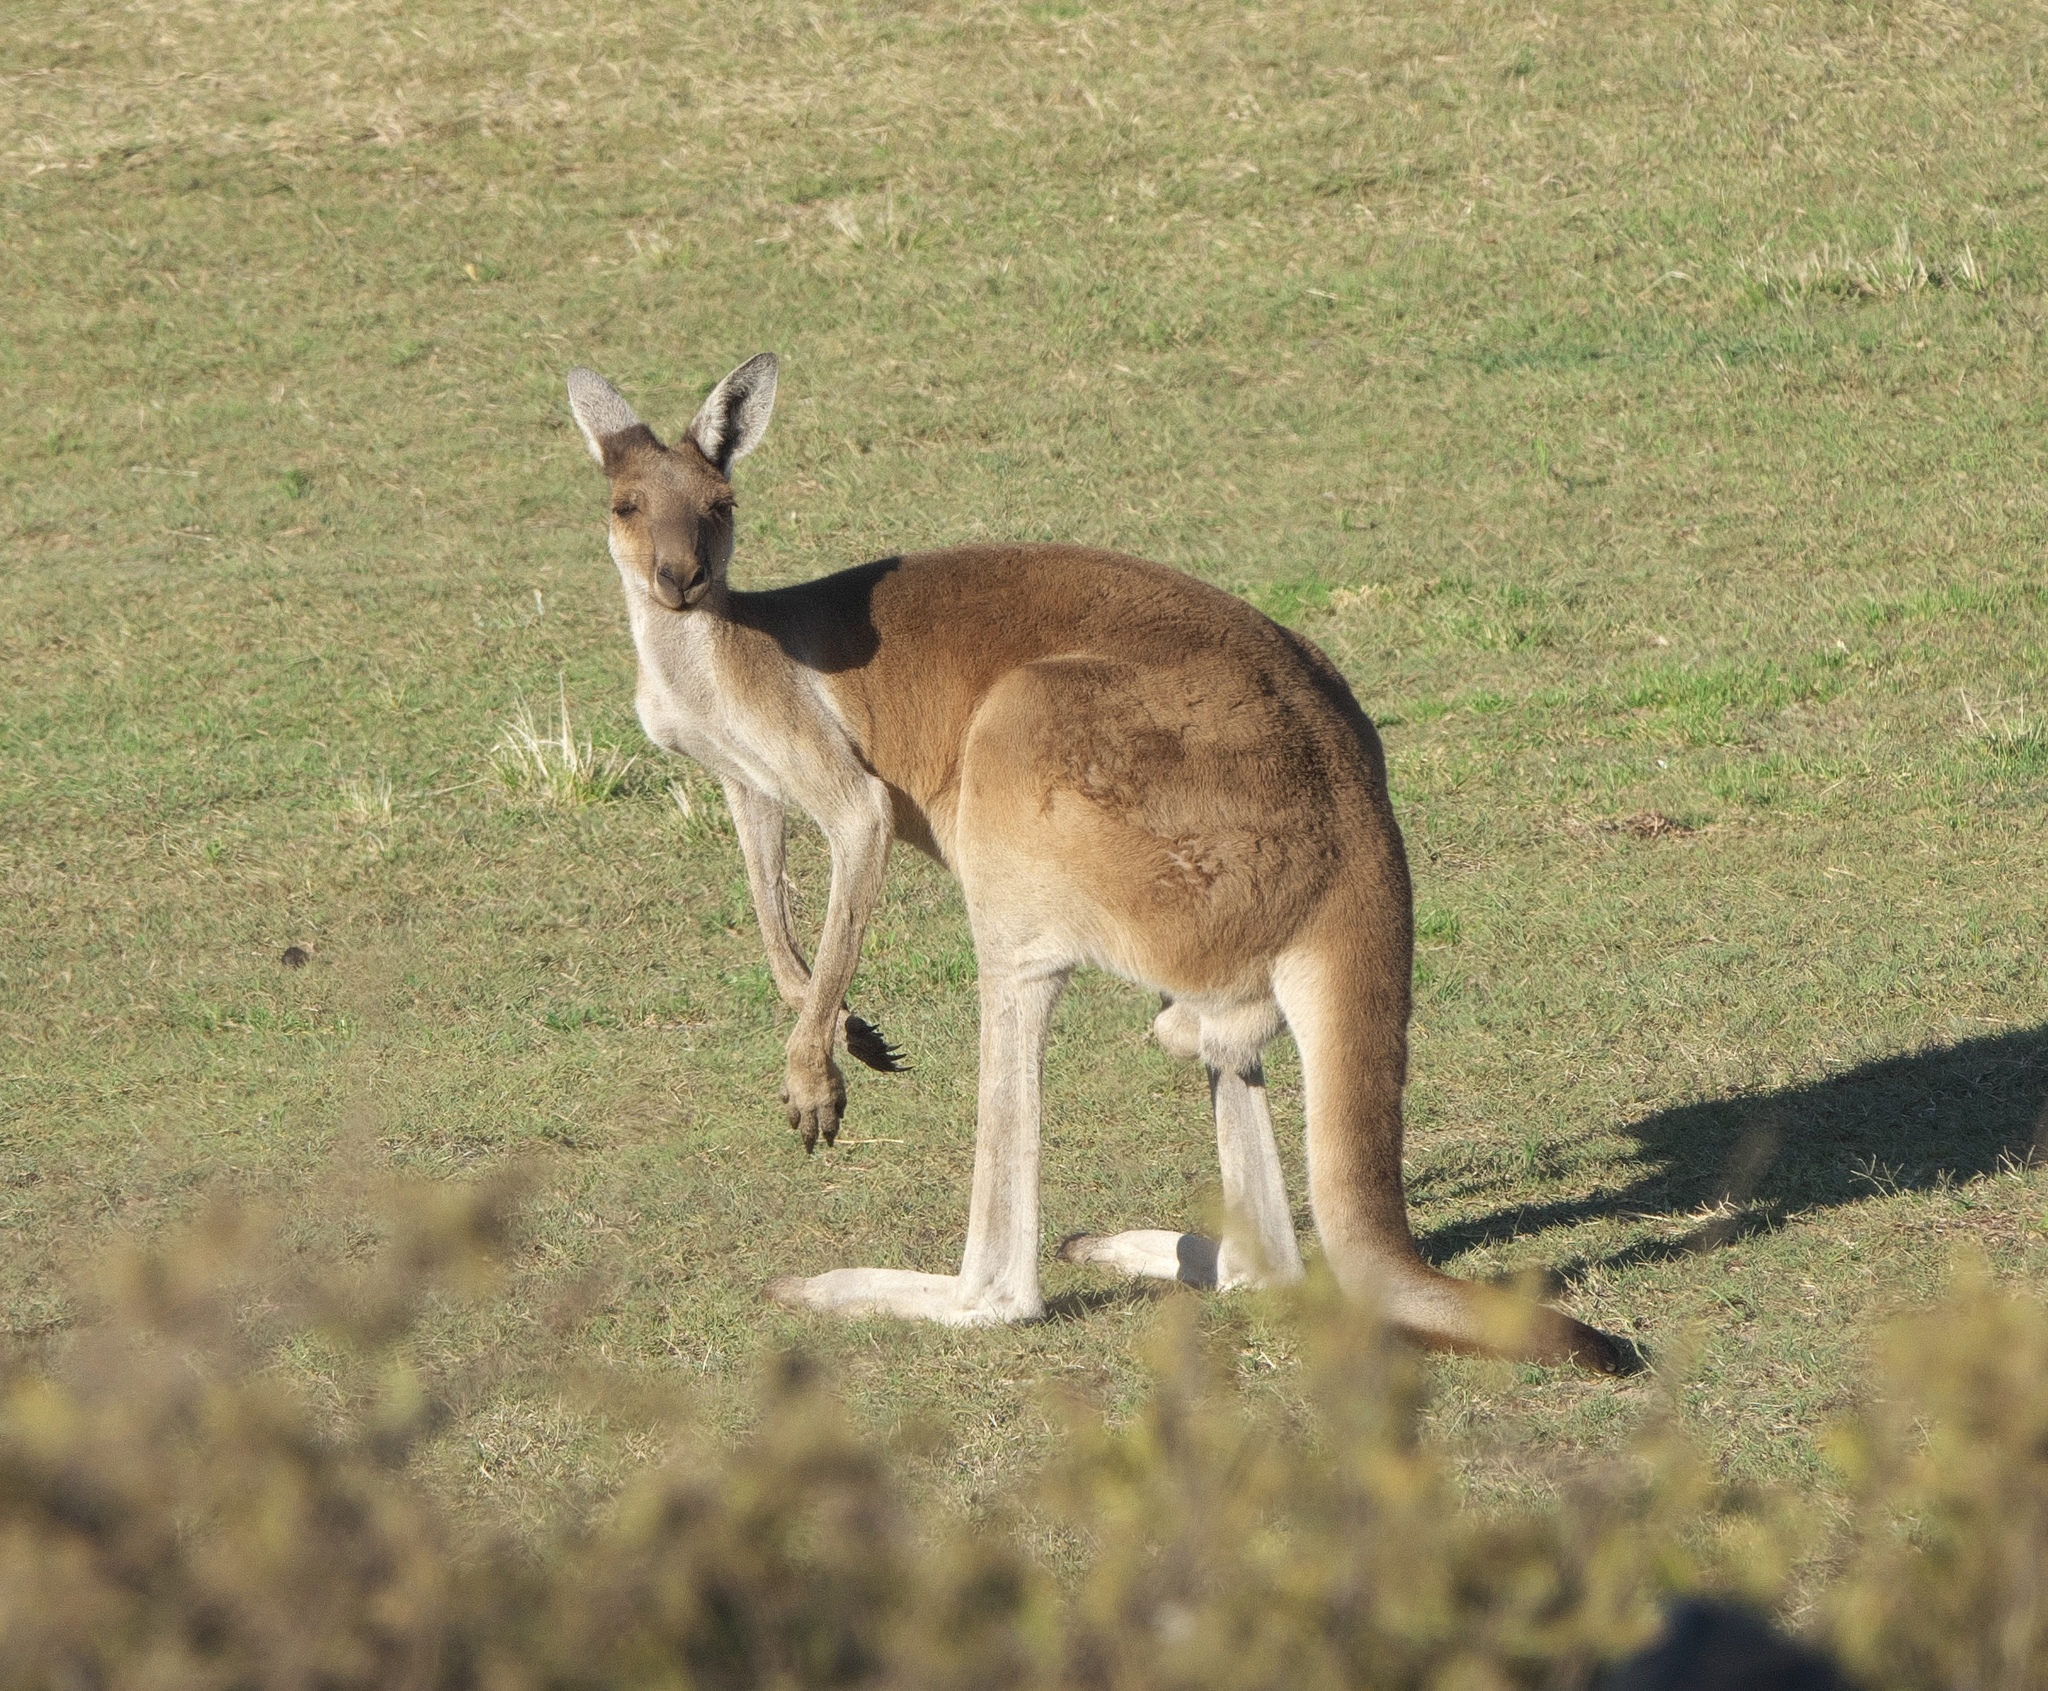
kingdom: Animalia
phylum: Chordata
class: Mammalia
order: Diprotodontia
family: Macropodidae
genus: Macropus
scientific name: Macropus fuliginosus
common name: Western grey kangaroo
